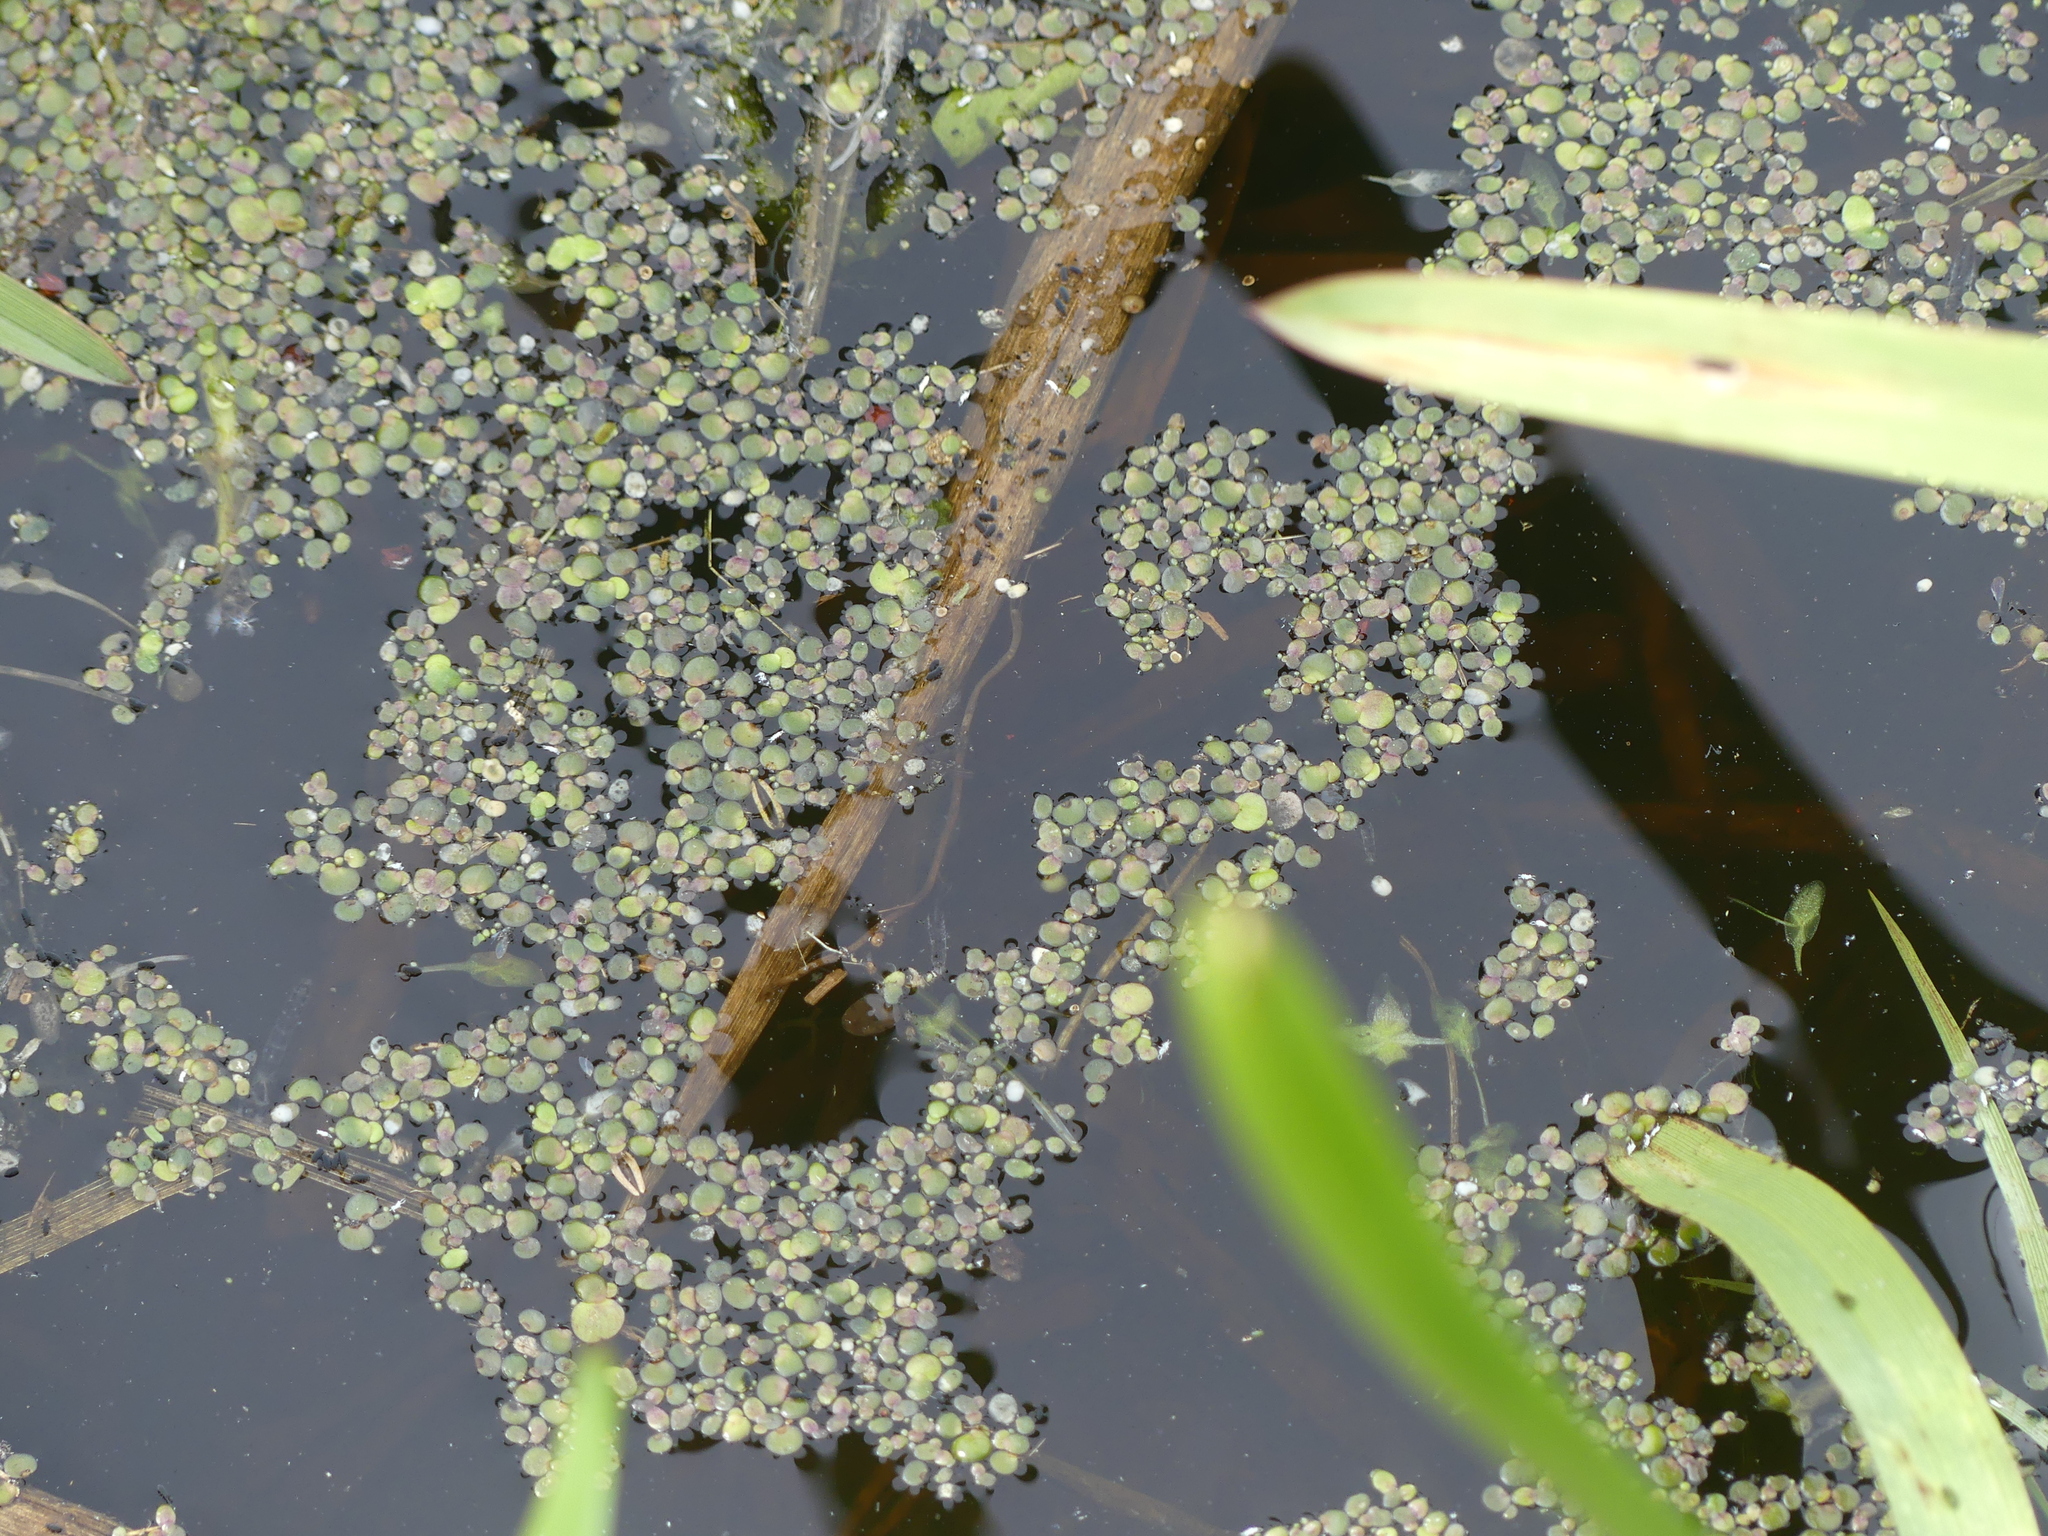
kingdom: Plantae
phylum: Tracheophyta
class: Liliopsida
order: Alismatales
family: Araceae
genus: Spirodela
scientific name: Spirodela polyrhiza
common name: Great duckweed
